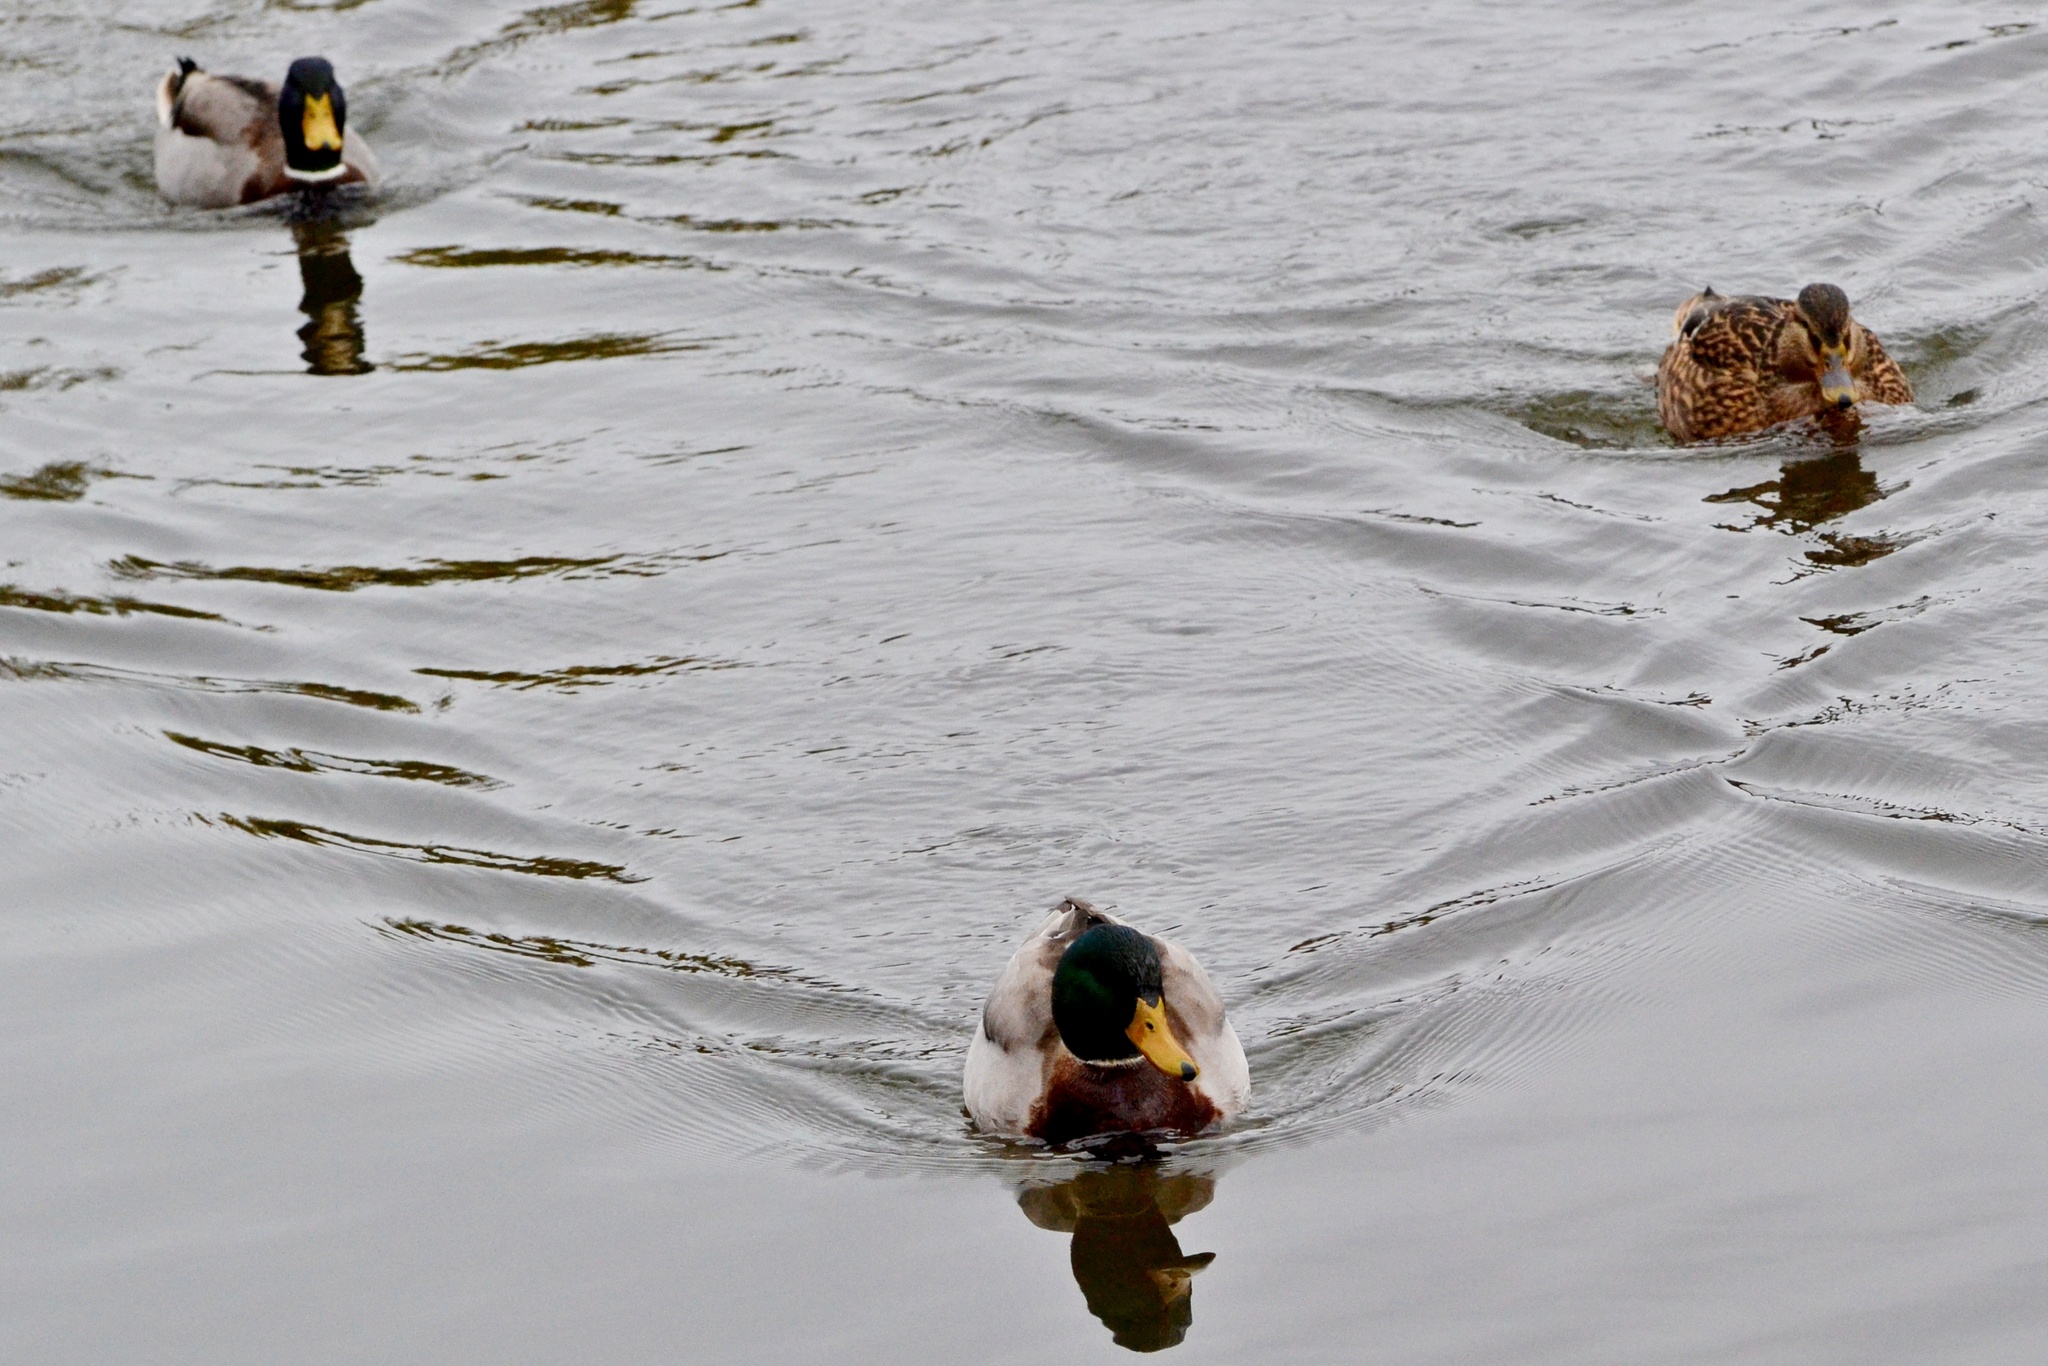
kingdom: Animalia
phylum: Chordata
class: Aves
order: Anseriformes
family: Anatidae
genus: Anas
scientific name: Anas platyrhynchos
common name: Mallard
